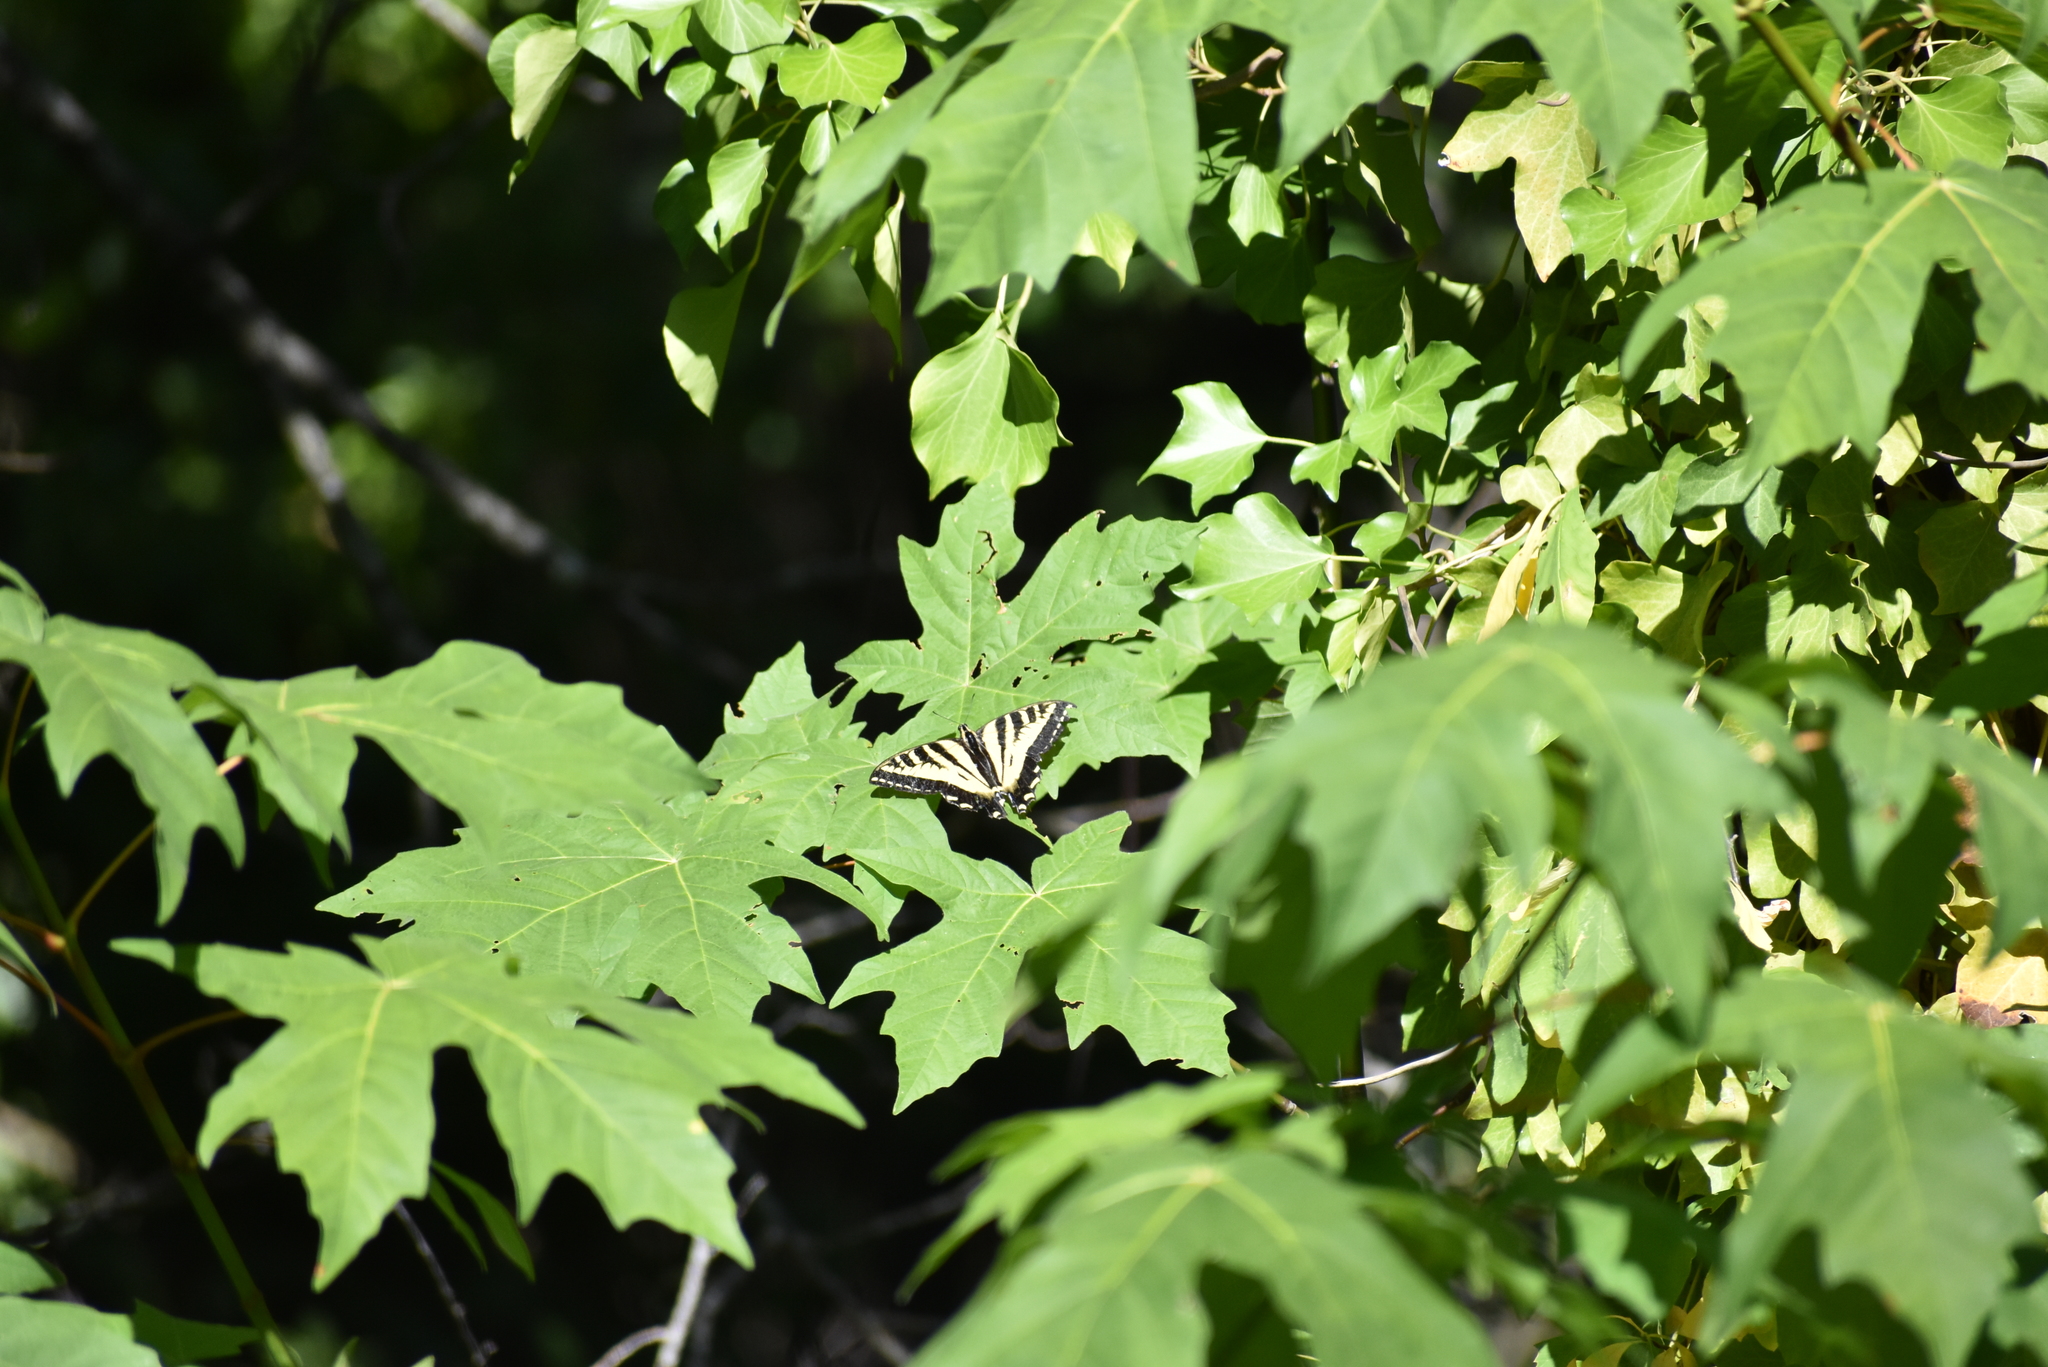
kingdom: Animalia
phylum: Arthropoda
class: Insecta
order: Lepidoptera
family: Papilionidae
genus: Papilio
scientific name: Papilio rutulus
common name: Western tiger swallowtail
